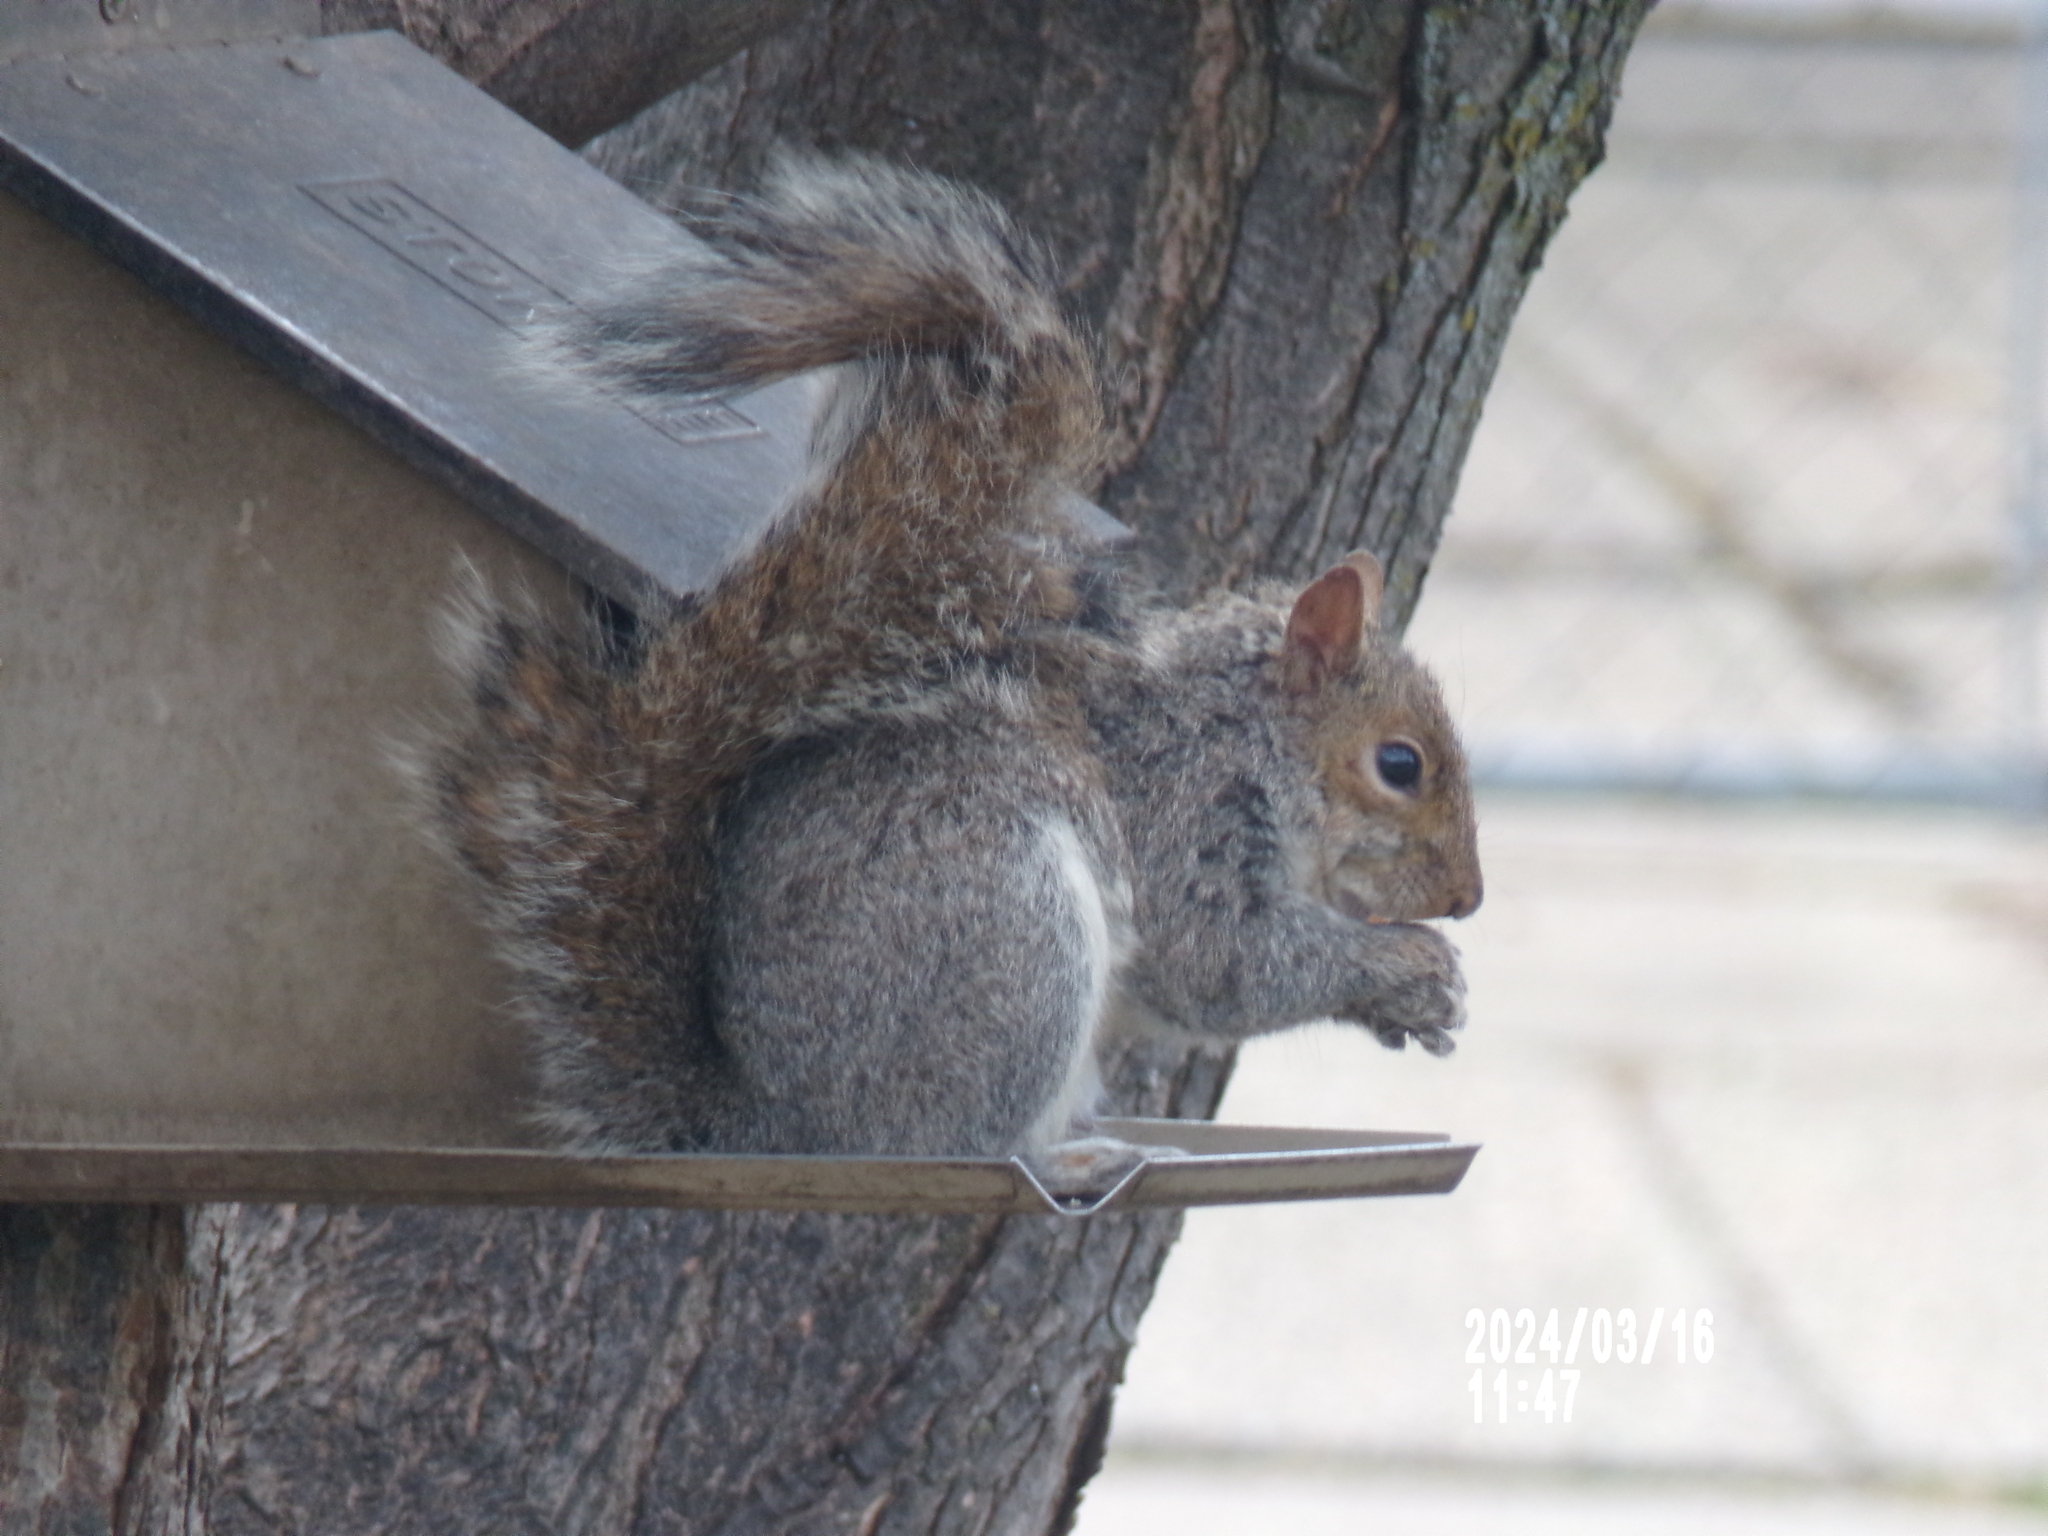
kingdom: Animalia
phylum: Chordata
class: Mammalia
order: Rodentia
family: Sciuridae
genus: Sciurus
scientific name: Sciurus carolinensis
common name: Eastern gray squirrel
